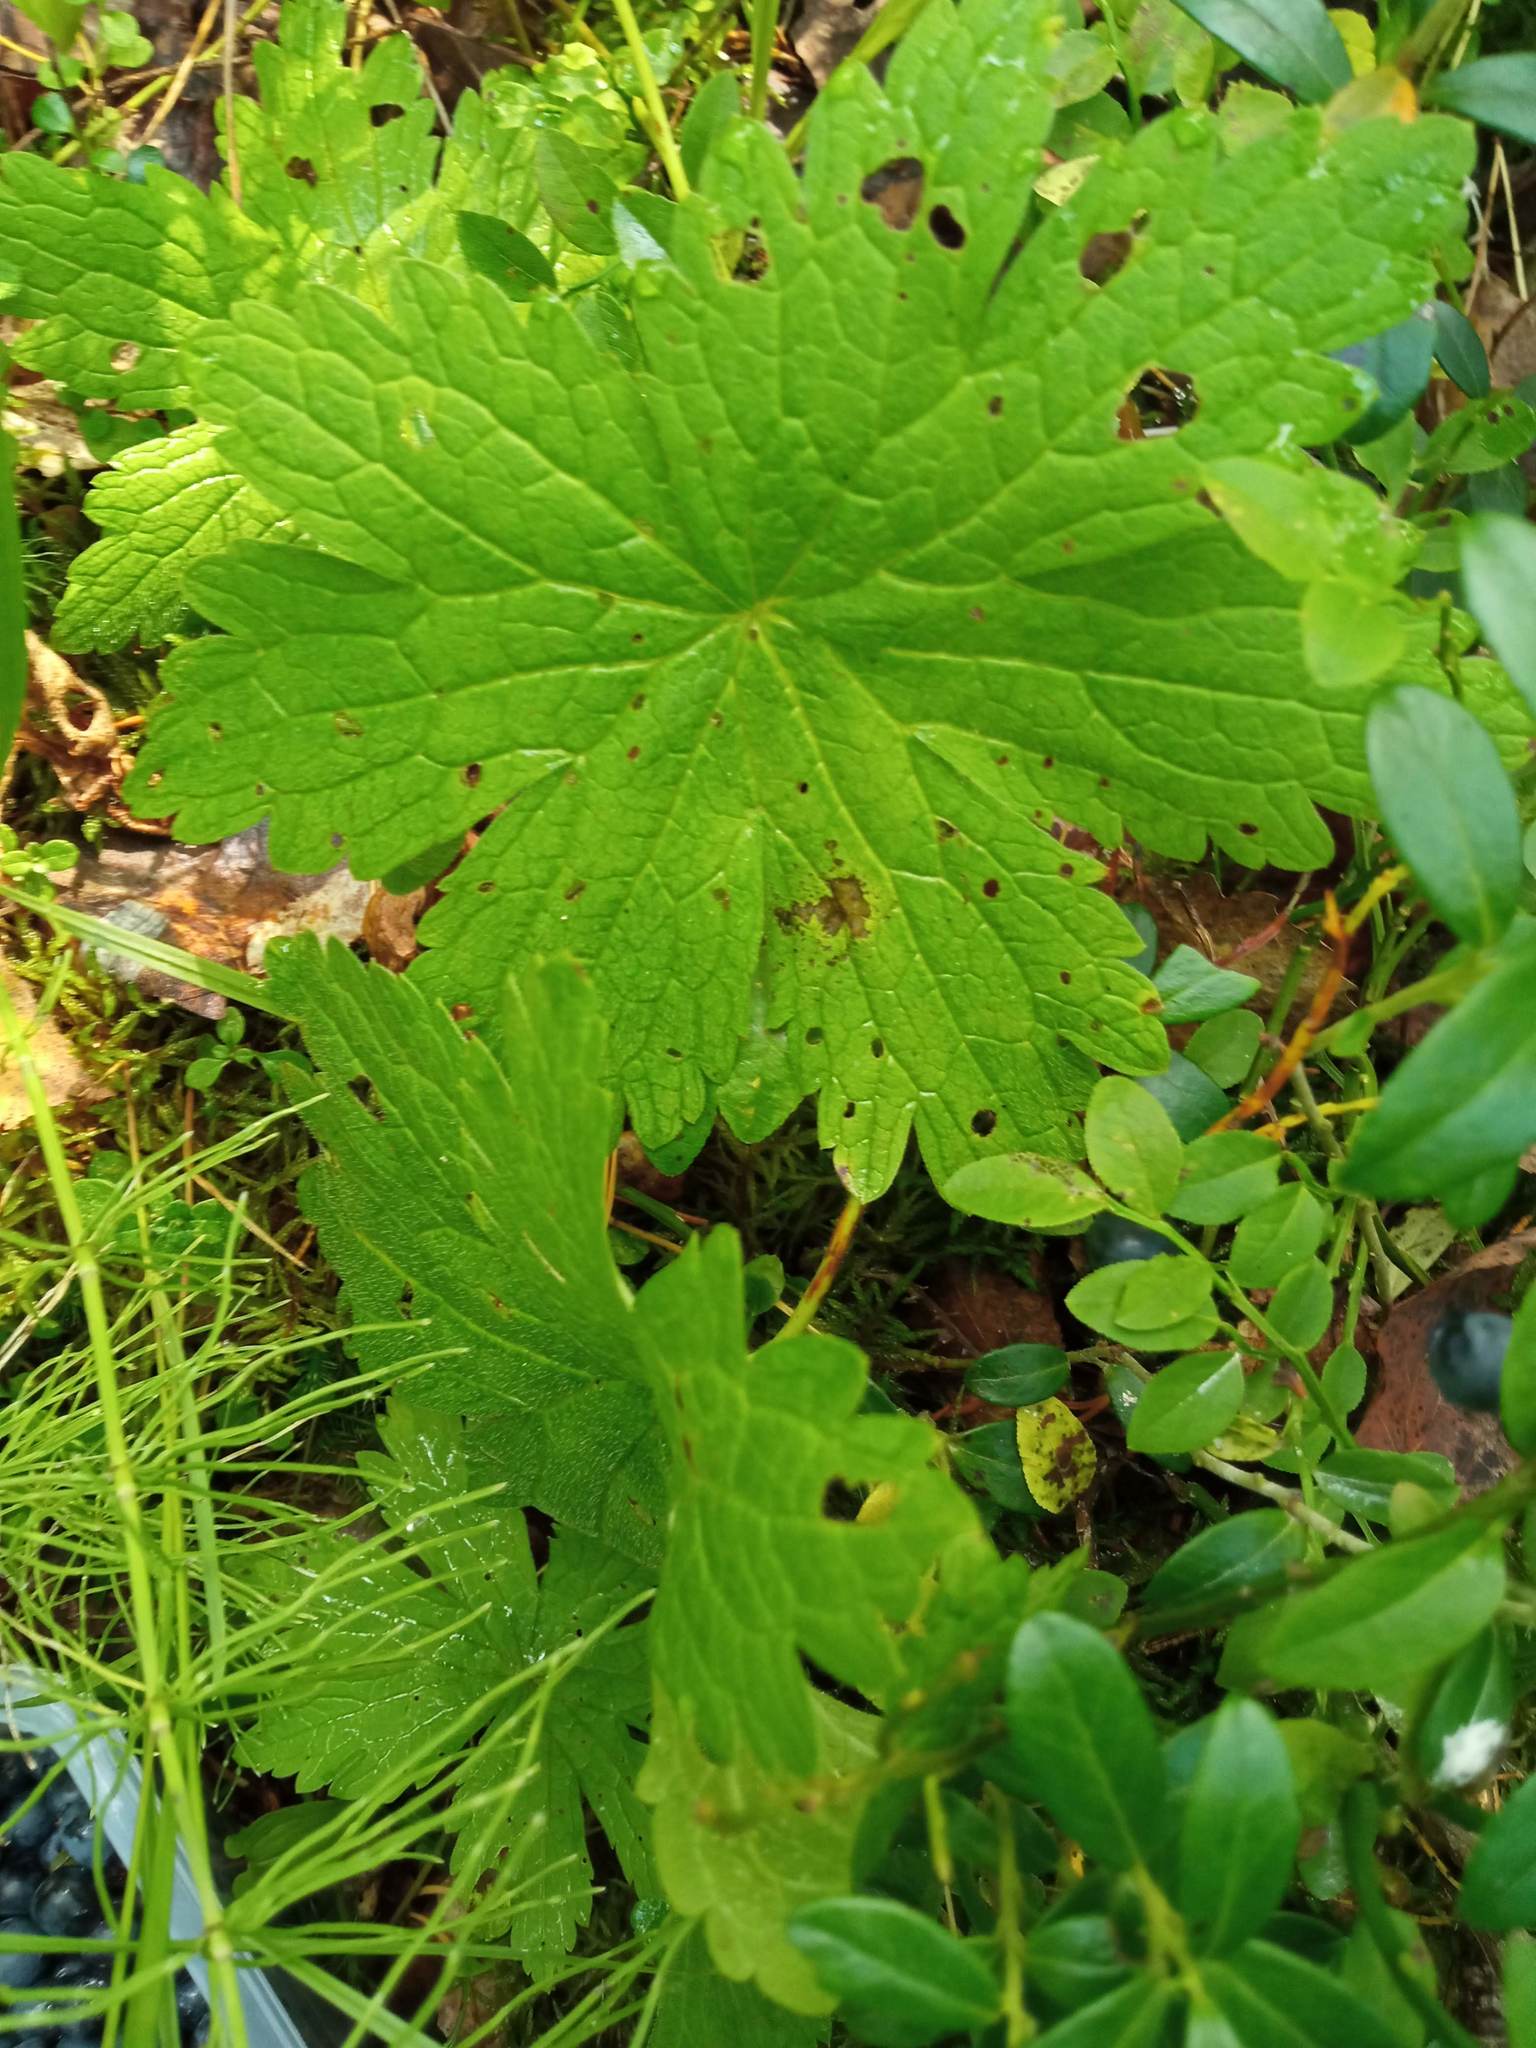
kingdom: Plantae
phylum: Tracheophyta
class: Magnoliopsida
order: Geraniales
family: Geraniaceae
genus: Geranium
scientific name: Geranium sylvaticum
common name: Wood crane's-bill
